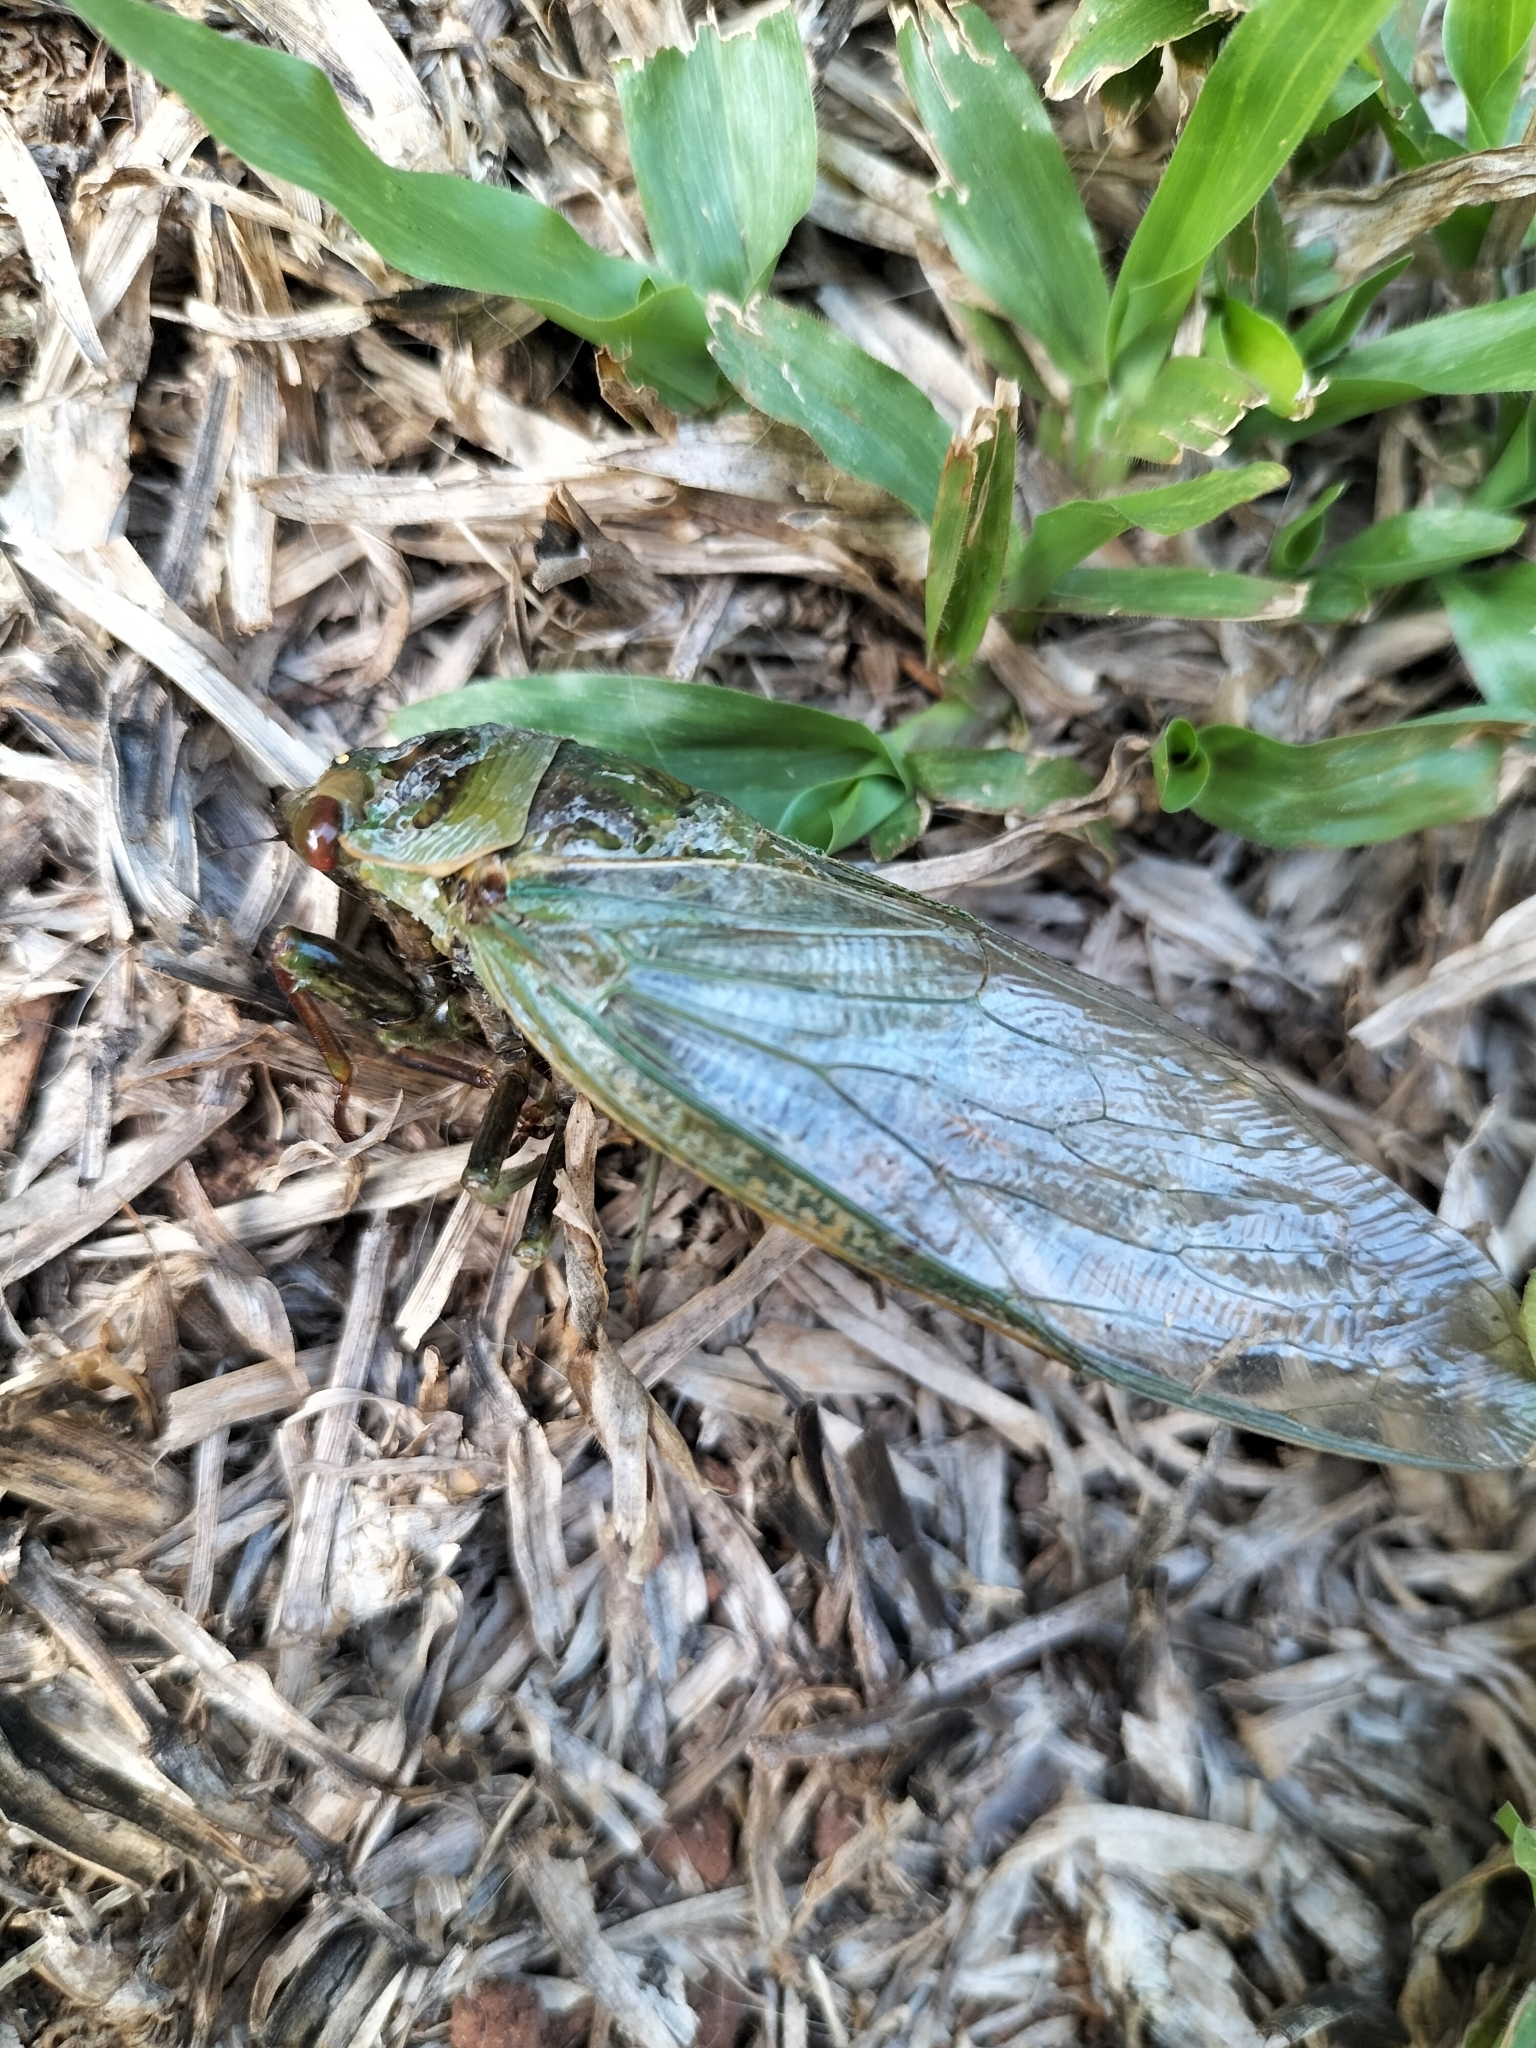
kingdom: Animalia
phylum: Arthropoda
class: Insecta
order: Hemiptera
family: Cicadidae
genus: Cyclochila
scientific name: Cyclochila virens
